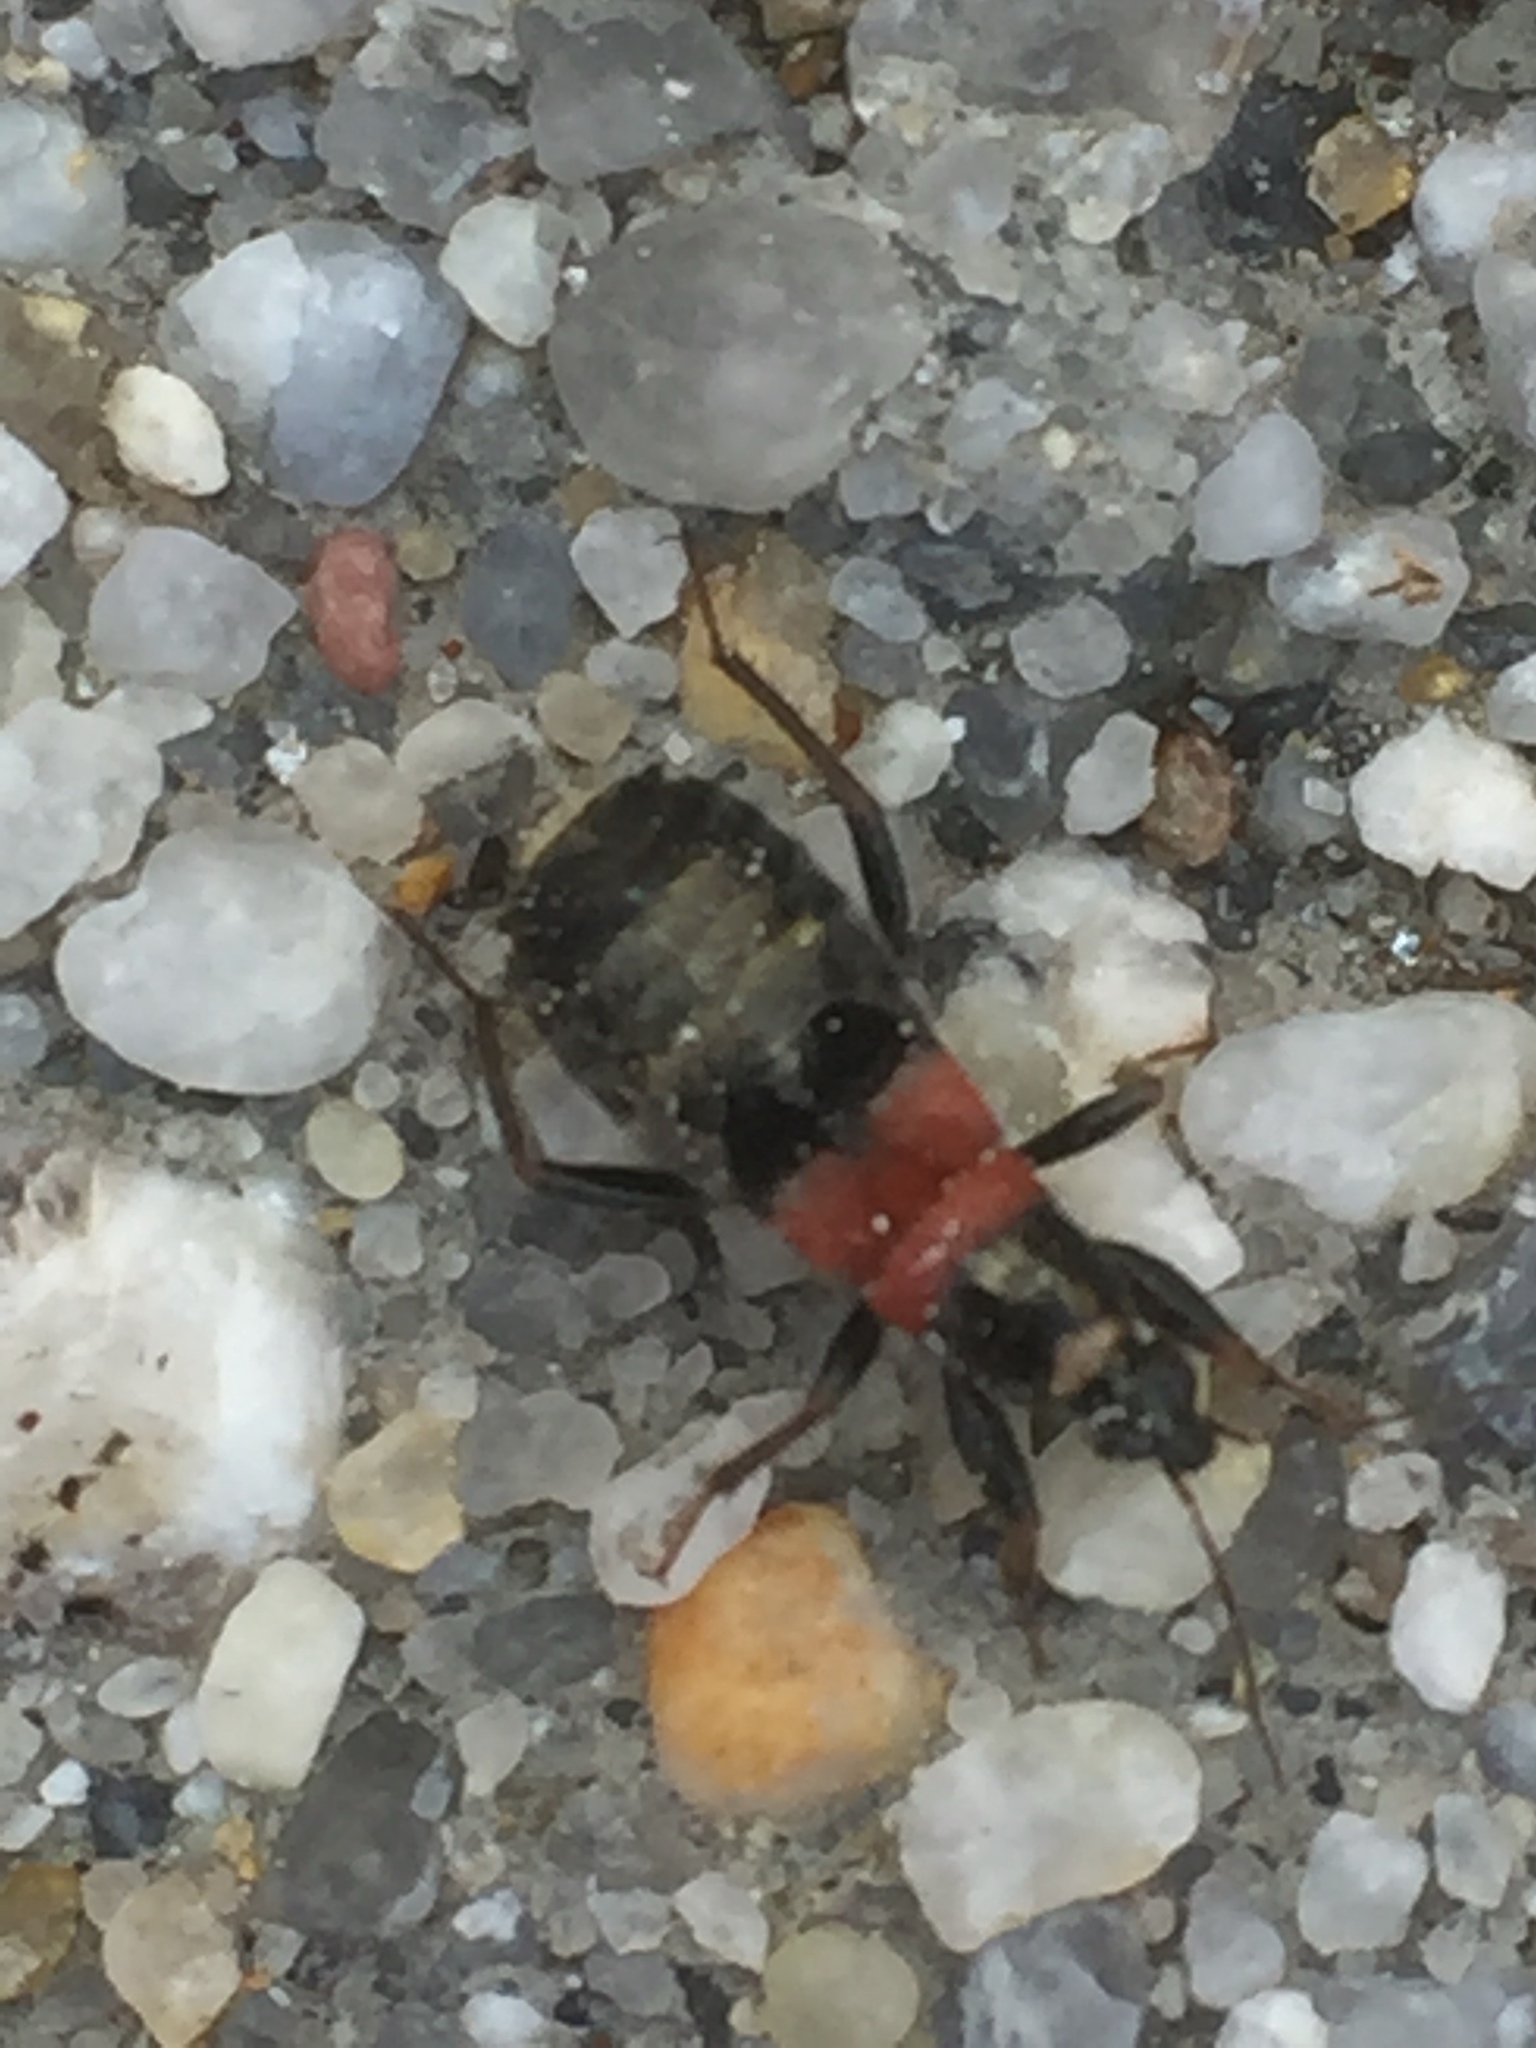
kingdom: Animalia
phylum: Arthropoda
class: Insecta
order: Hemiptera
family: Nabidae
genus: Prostemma
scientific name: Prostemma albimacula
